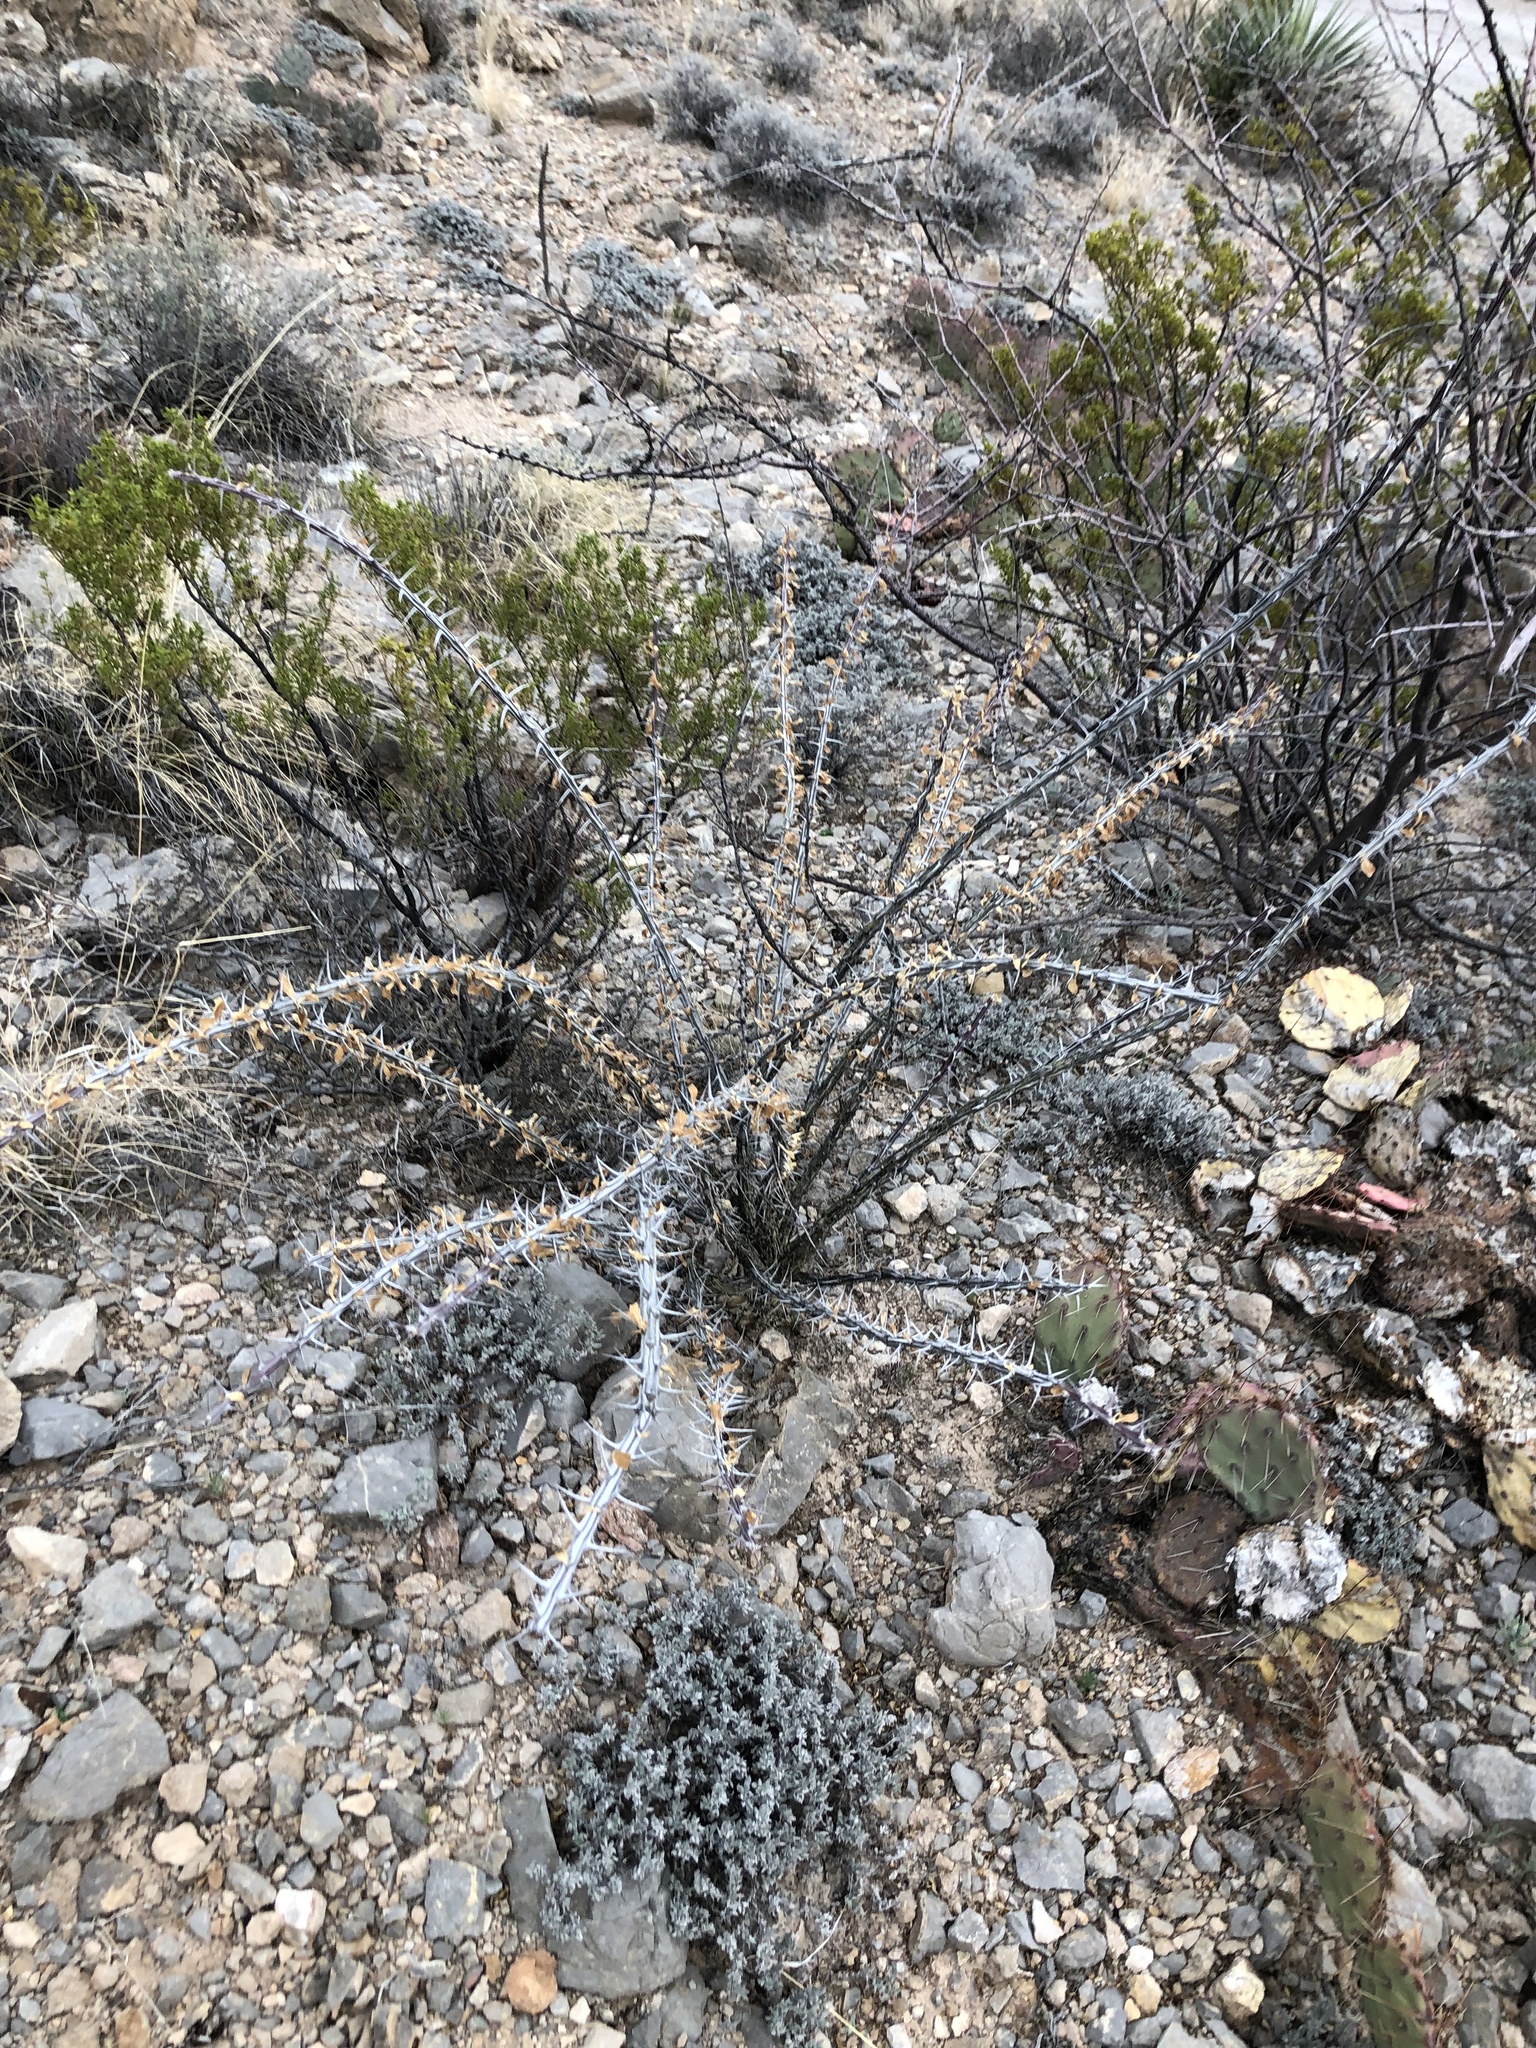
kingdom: Plantae
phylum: Tracheophyta
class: Magnoliopsida
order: Ericales
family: Fouquieriaceae
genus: Fouquieria
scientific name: Fouquieria splendens
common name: Vine-cactus
